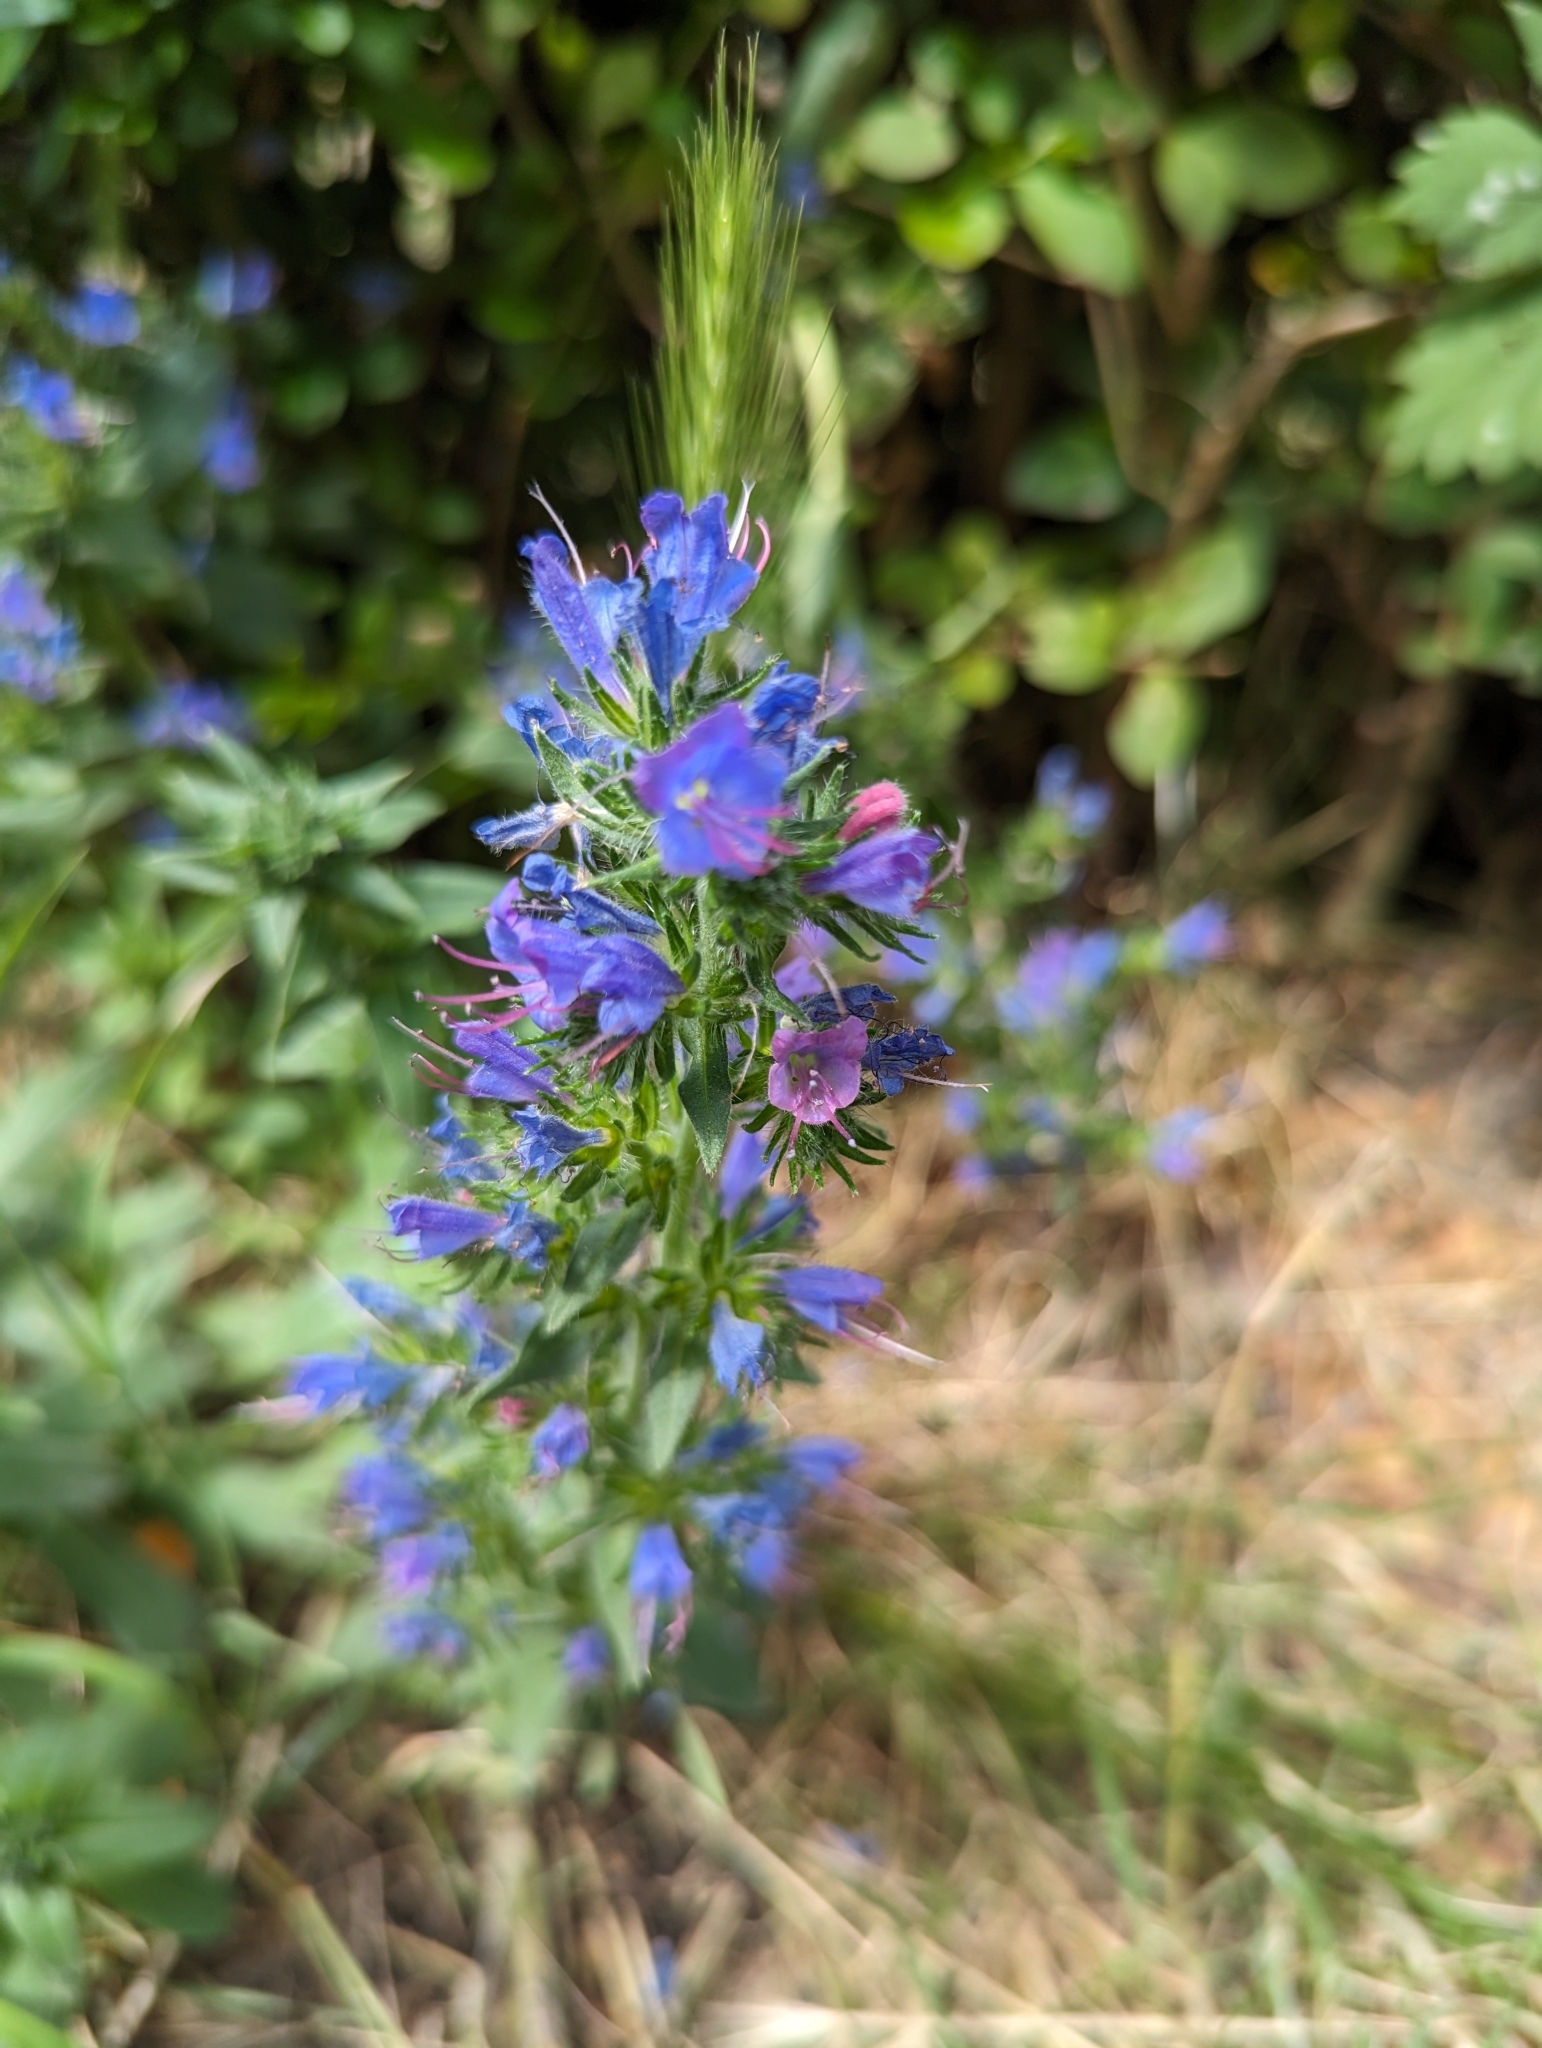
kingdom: Plantae
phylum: Tracheophyta
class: Magnoliopsida
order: Boraginales
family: Boraginaceae
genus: Echium
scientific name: Echium vulgare
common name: Common viper's bugloss
